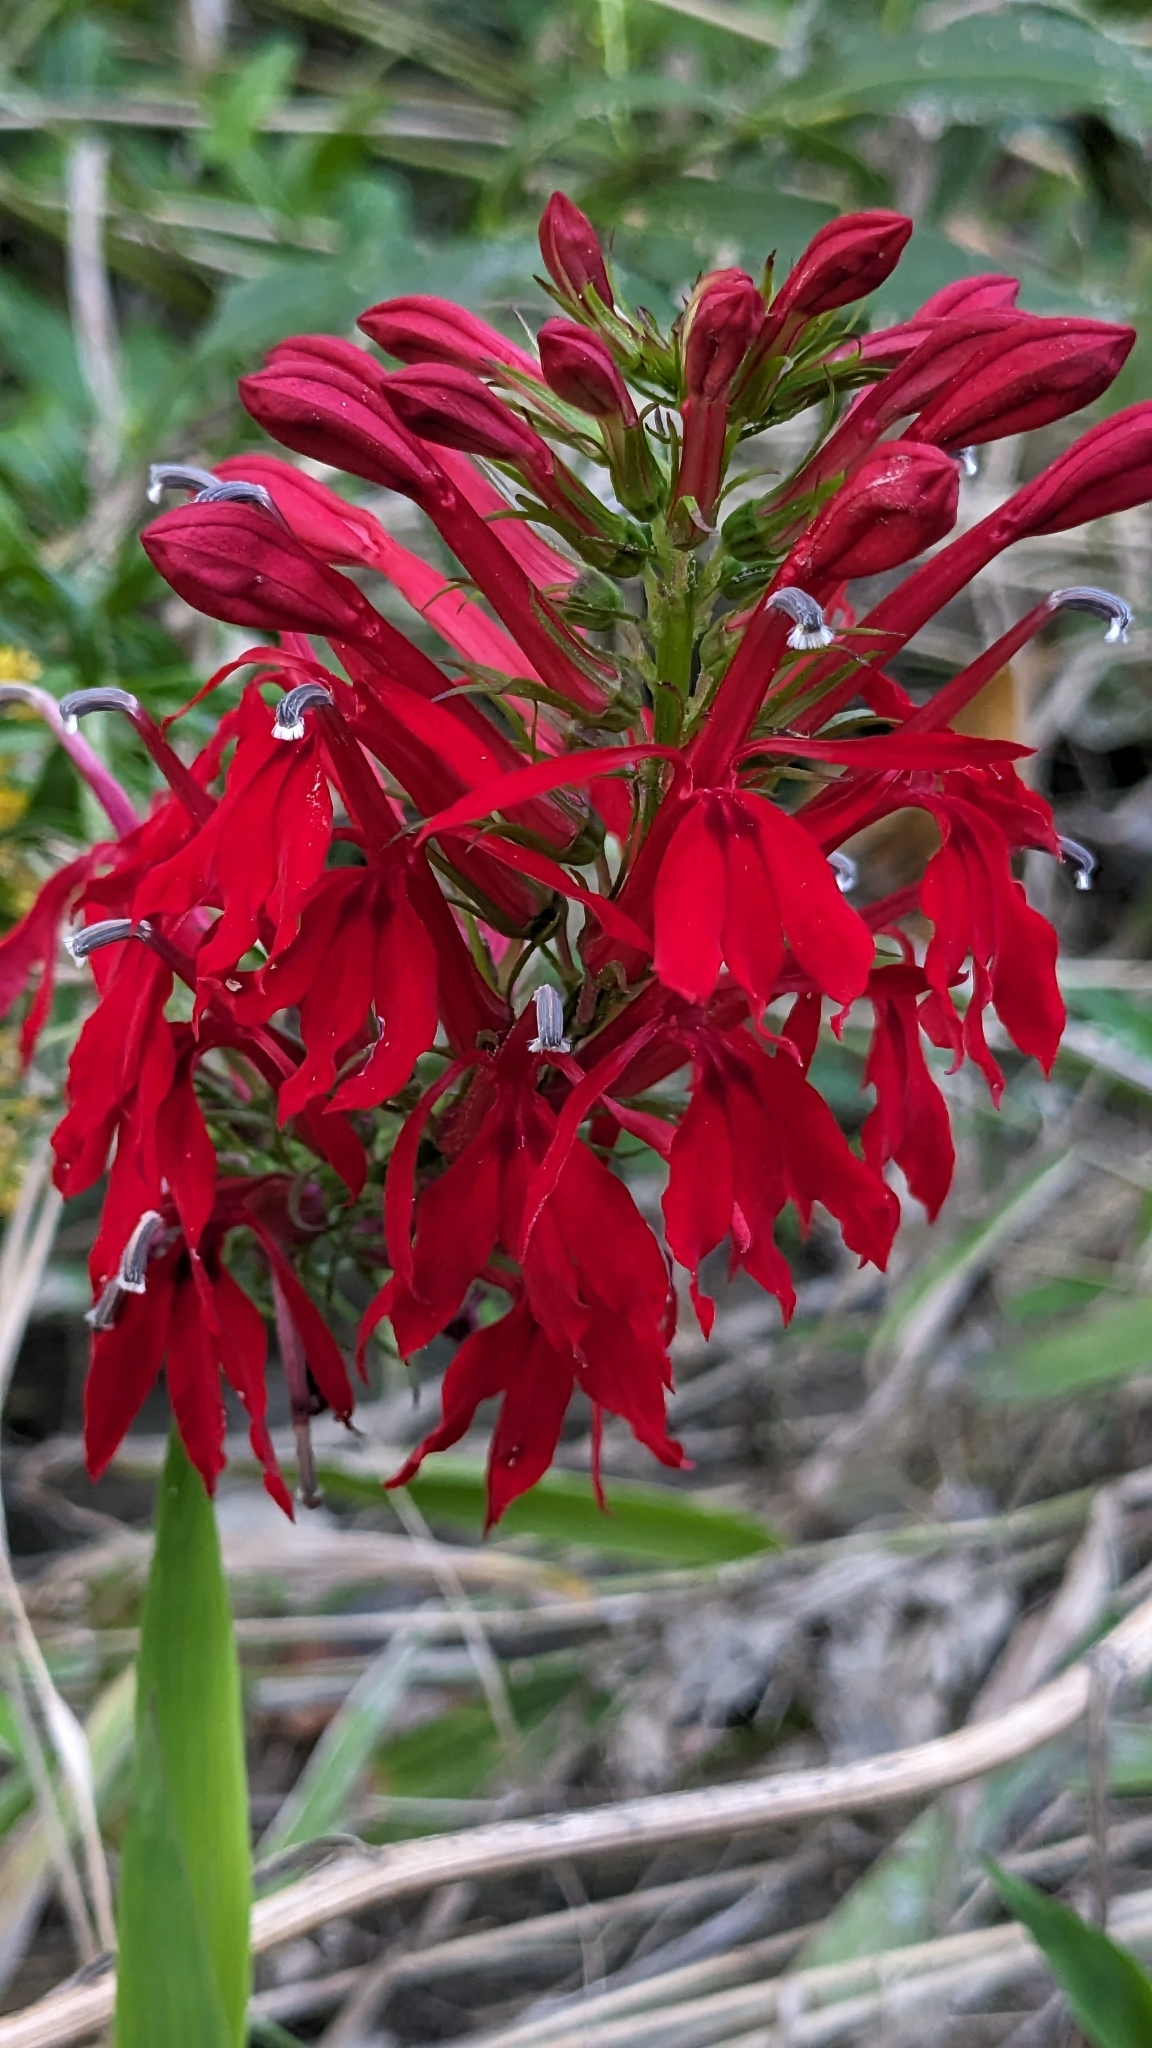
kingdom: Plantae
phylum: Tracheophyta
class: Magnoliopsida
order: Asterales
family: Campanulaceae
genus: Lobelia
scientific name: Lobelia cardinalis
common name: Cardinal flower
